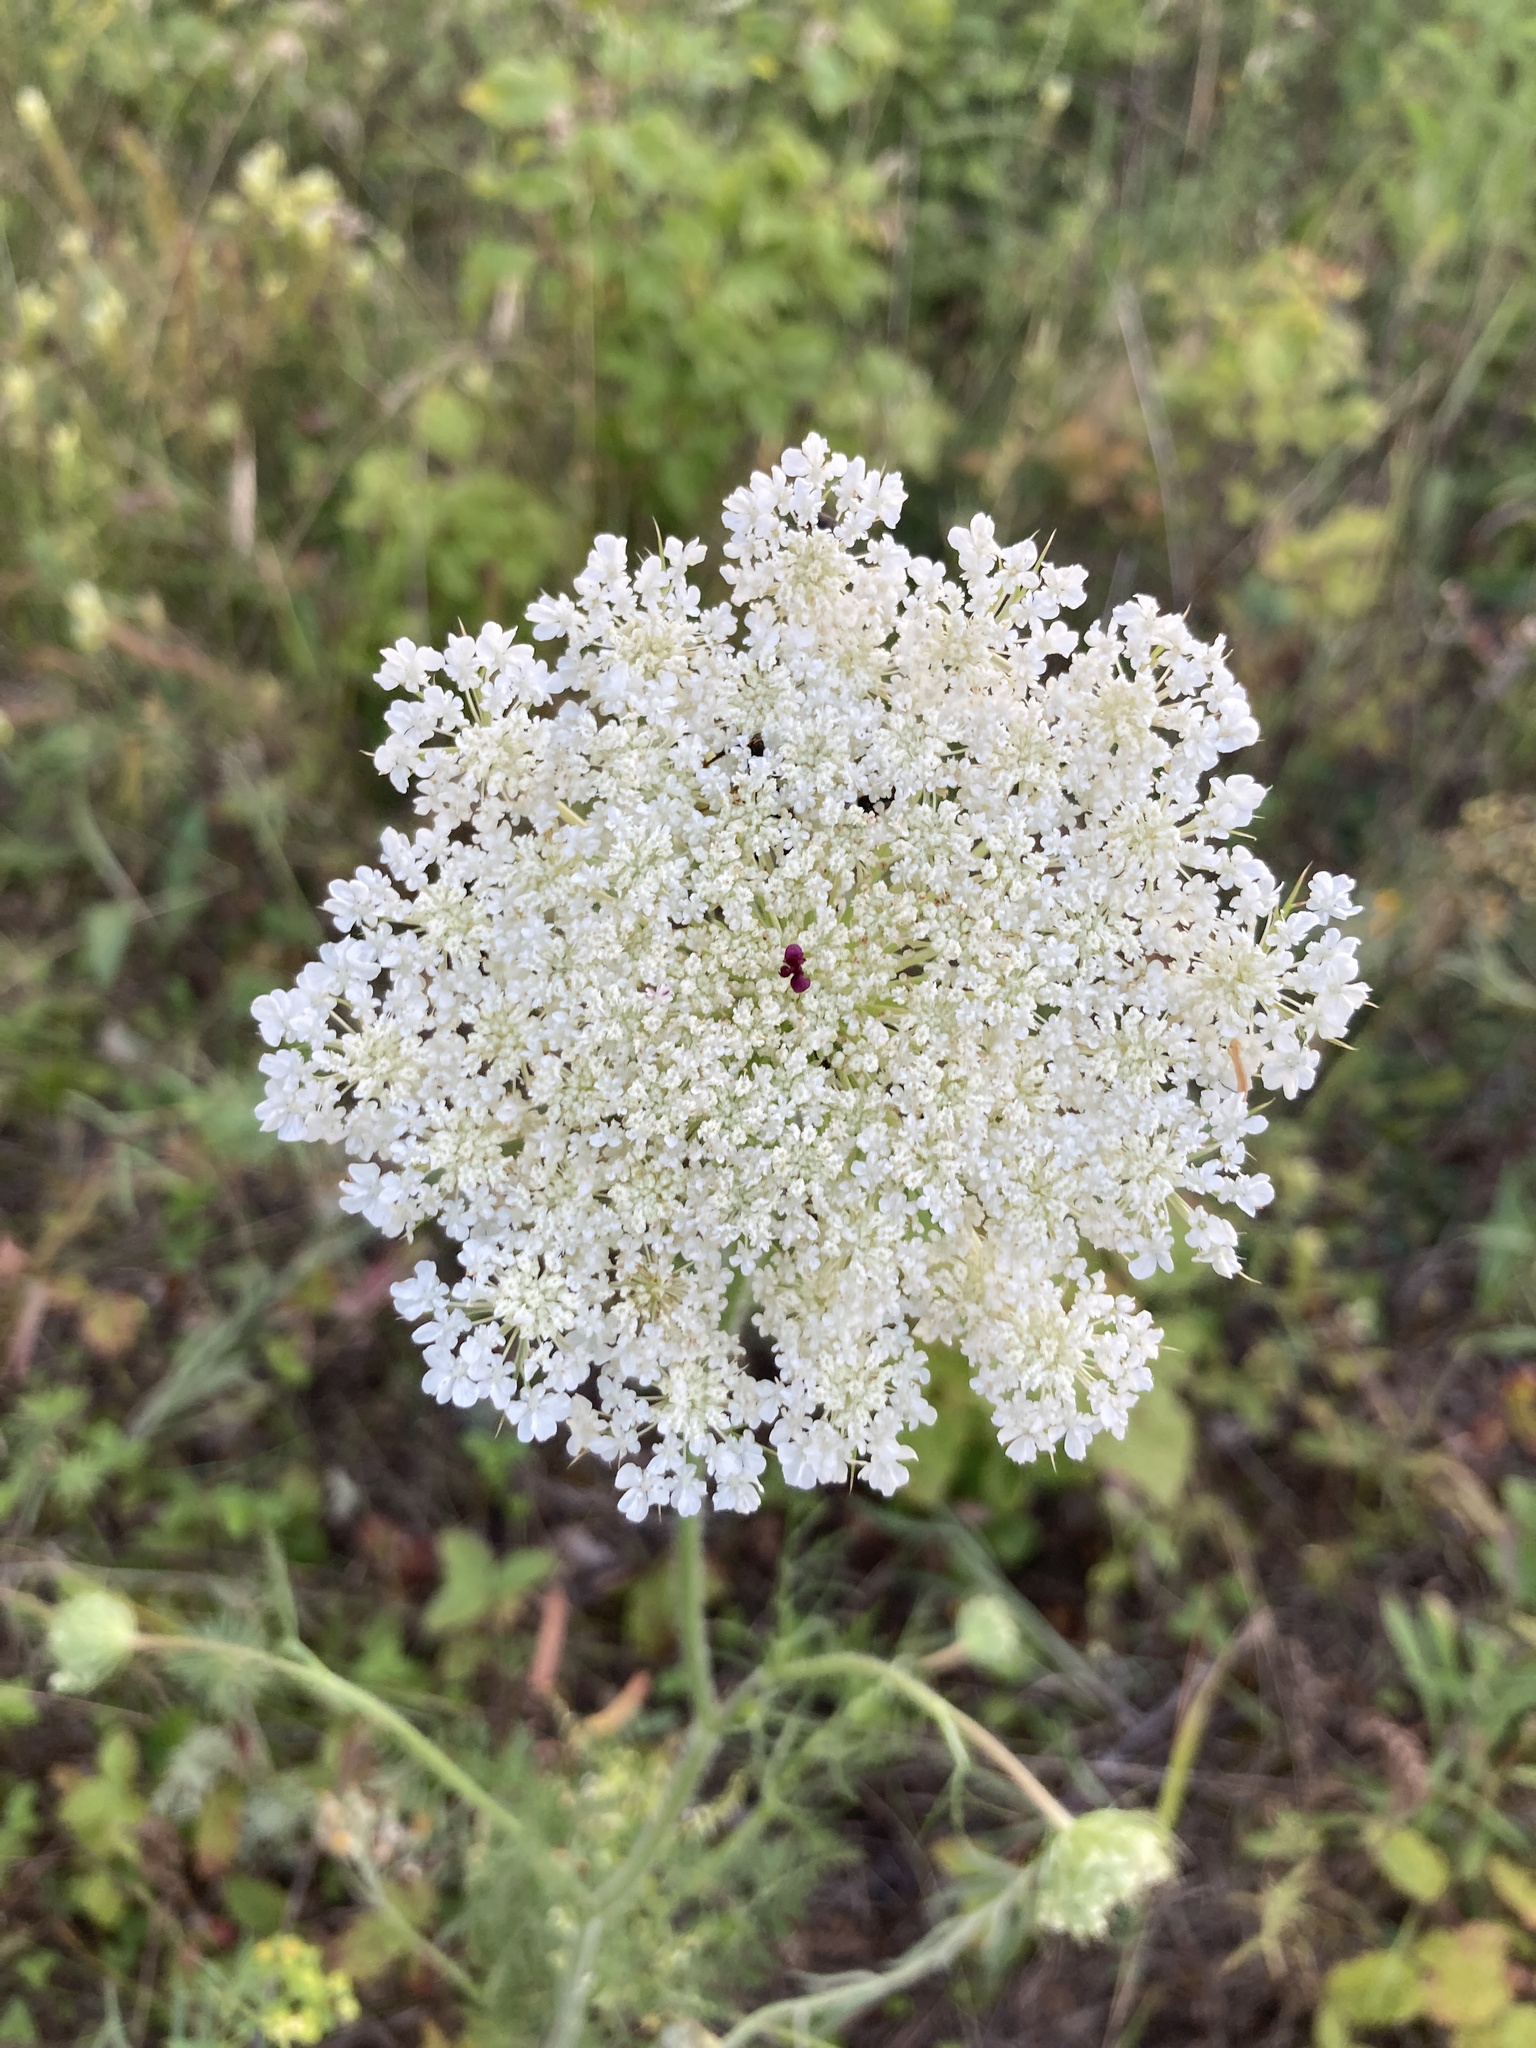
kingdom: Plantae
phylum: Tracheophyta
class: Magnoliopsida
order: Apiales
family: Apiaceae
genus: Daucus
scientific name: Daucus carota
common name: Wild carrot
